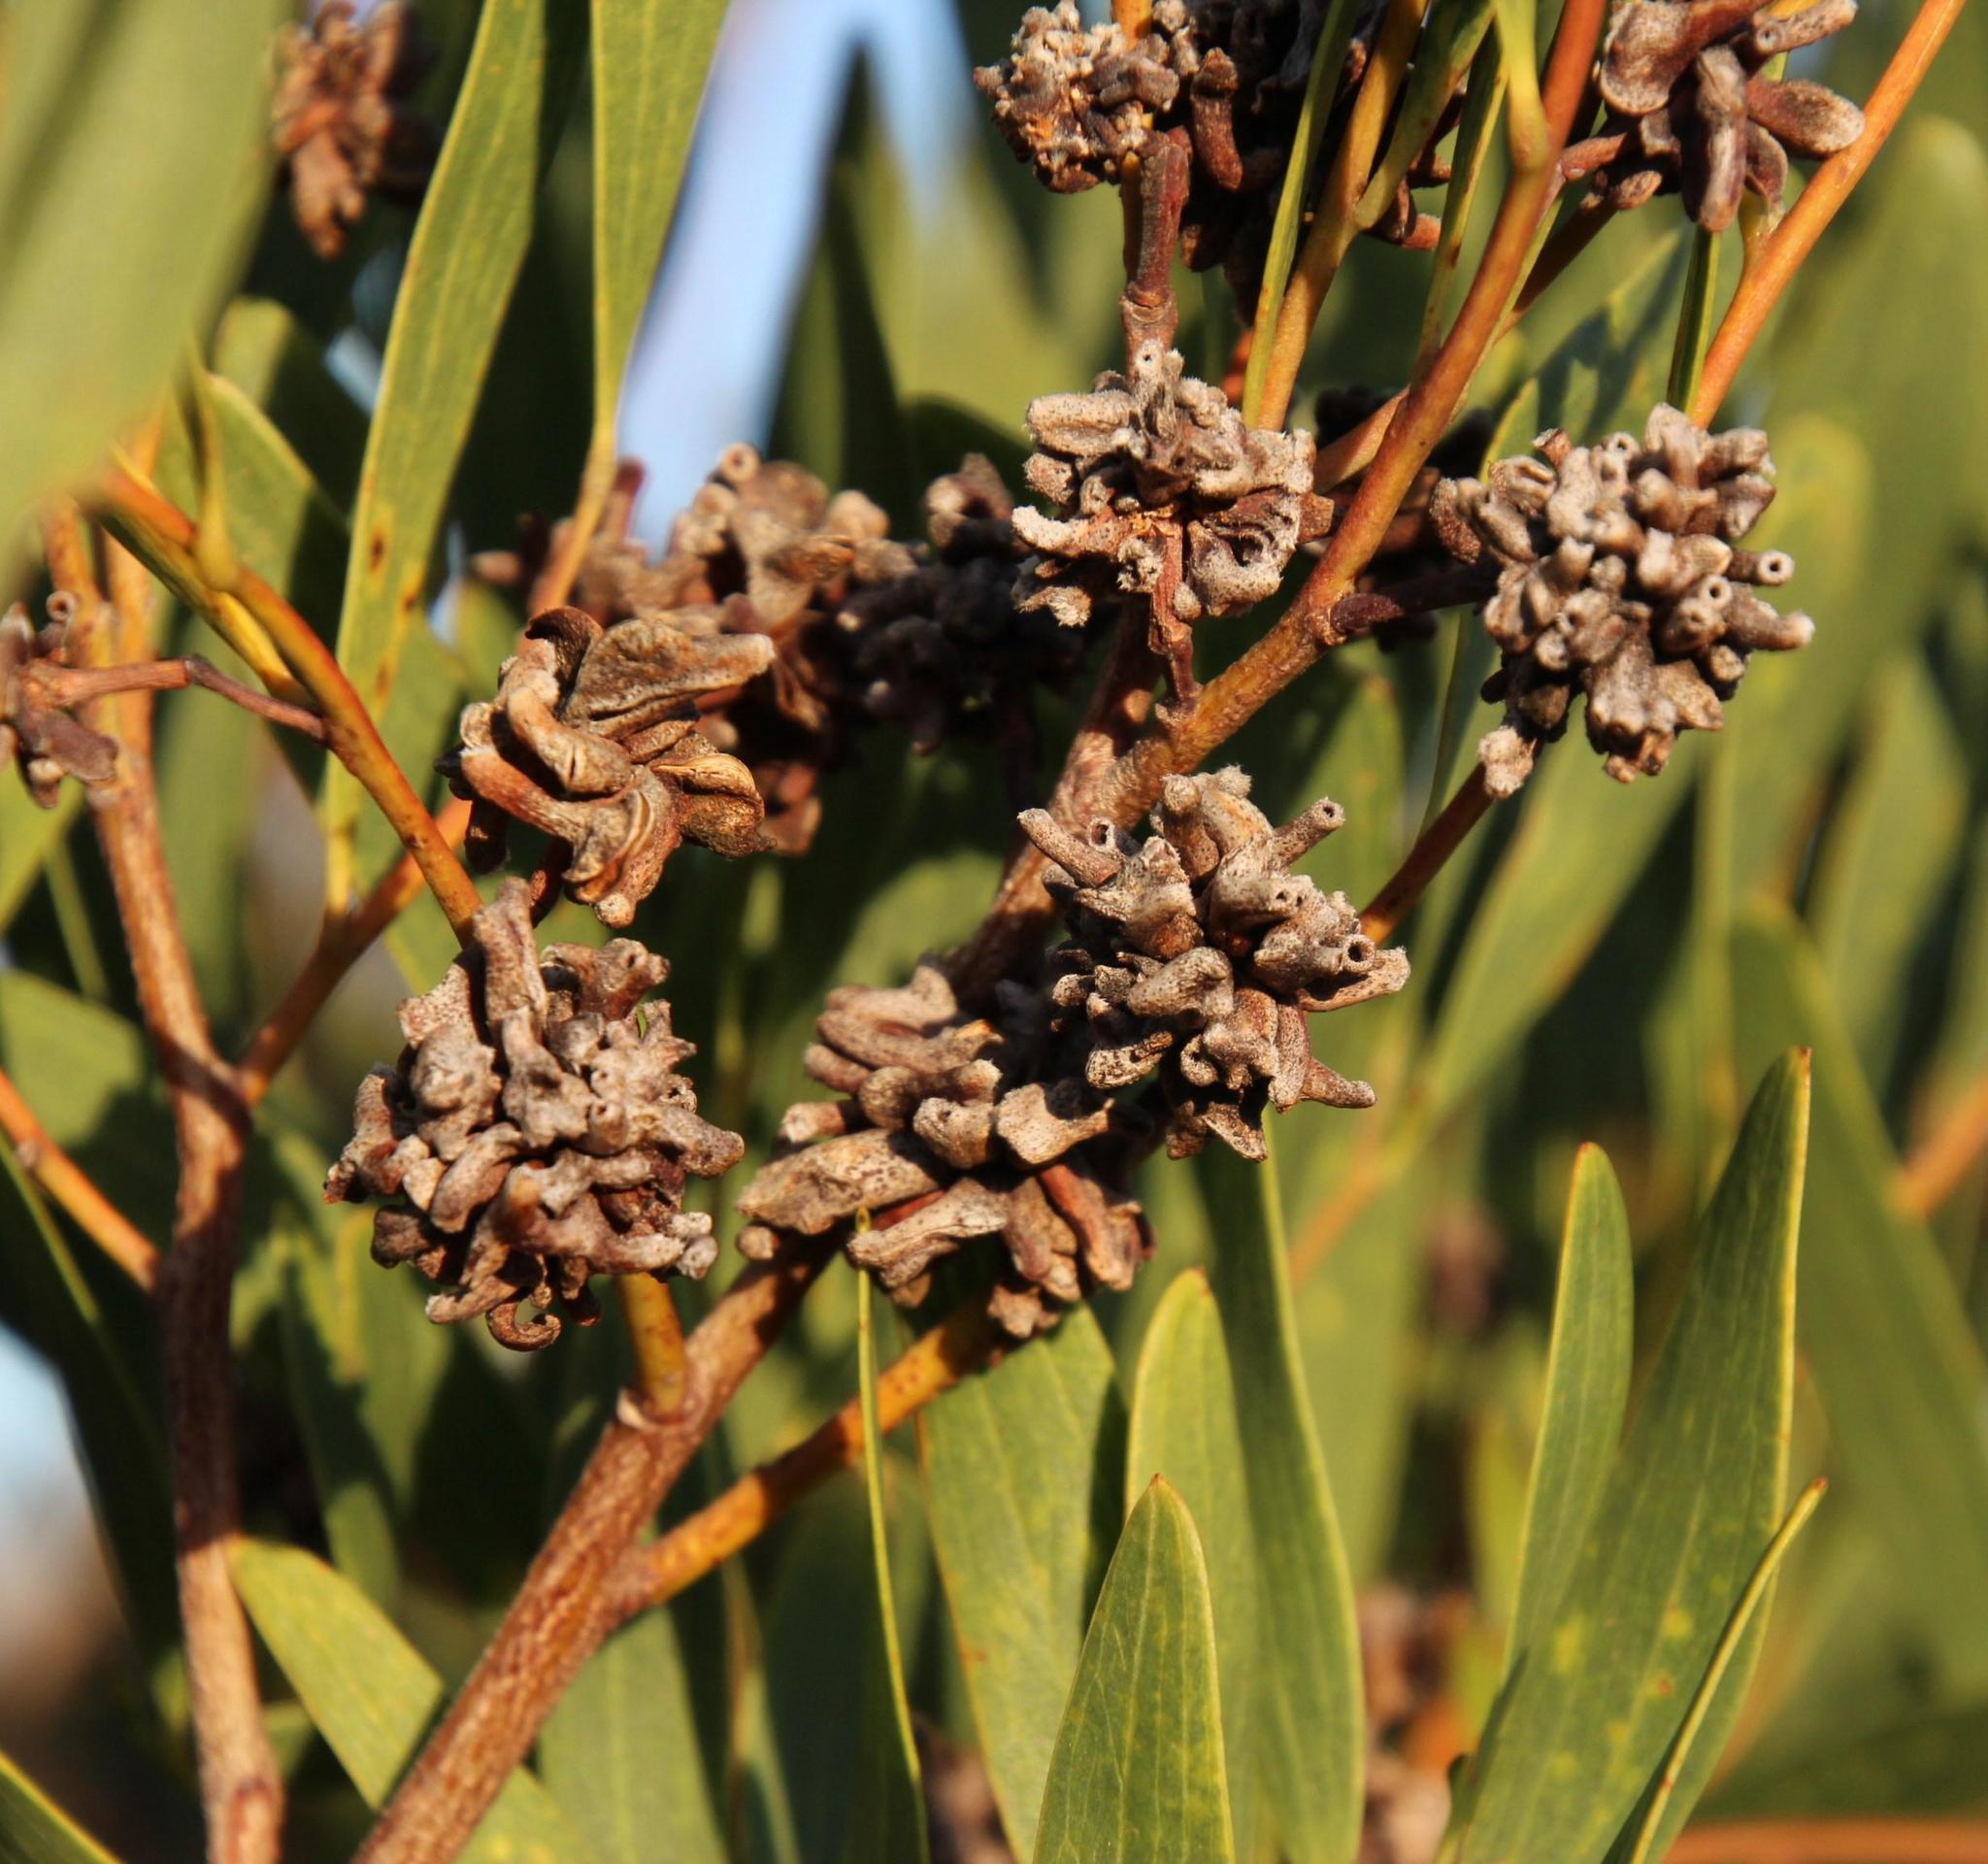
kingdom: Animalia
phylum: Arthropoda
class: Insecta
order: Diptera
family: Cecidomyiidae
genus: Dasineura
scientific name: Dasineura dielsi
